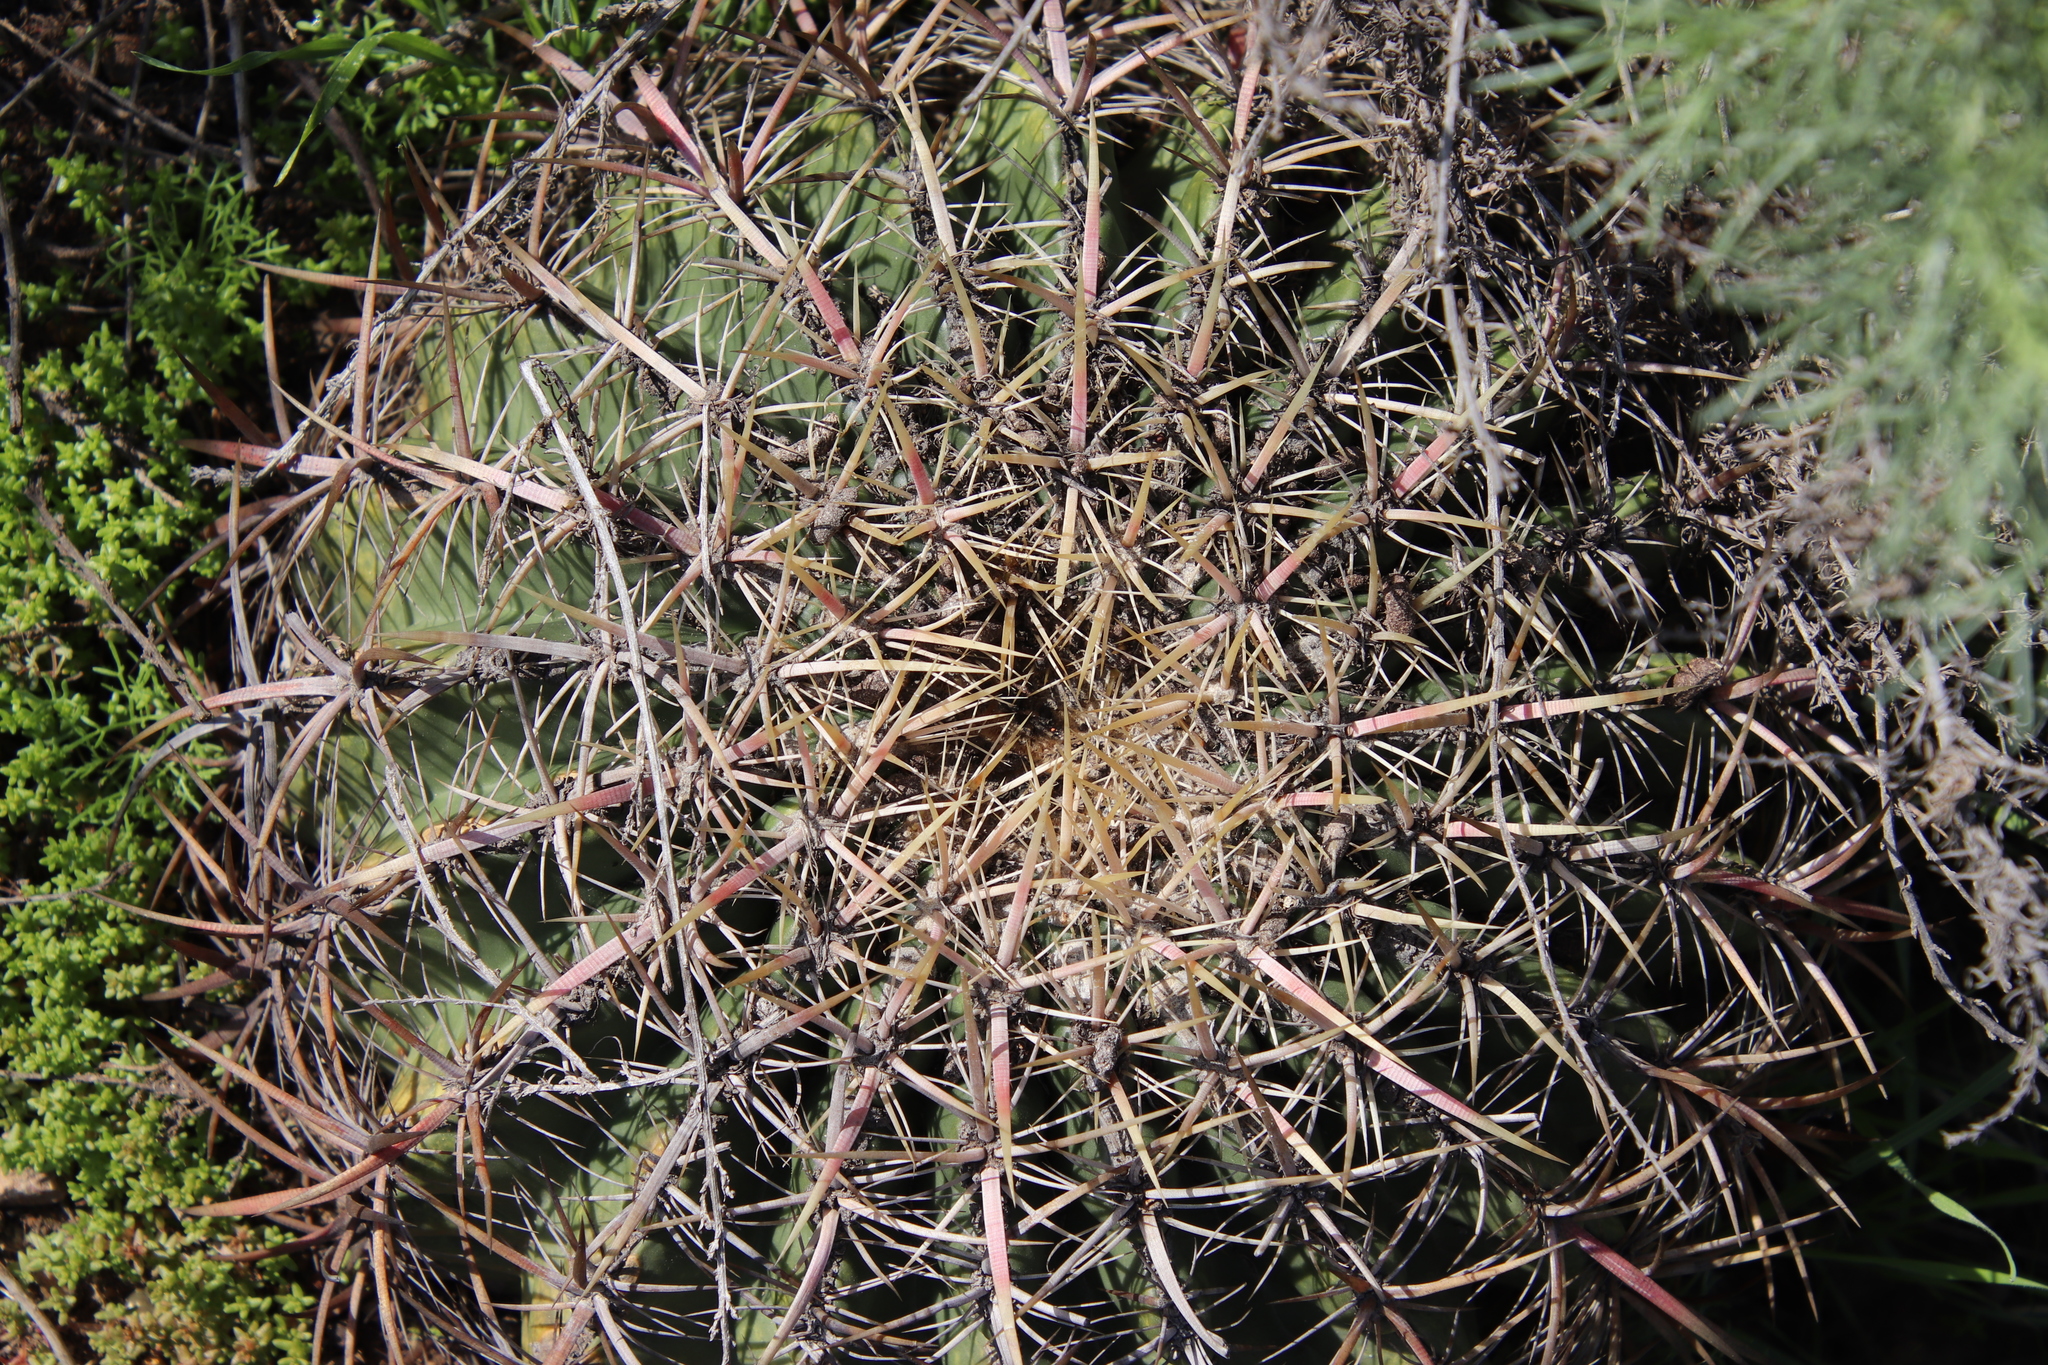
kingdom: Plantae
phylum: Tracheophyta
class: Magnoliopsida
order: Caryophyllales
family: Cactaceae
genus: Ferocactus
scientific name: Ferocactus viridescens
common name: San diego barrel cactus
